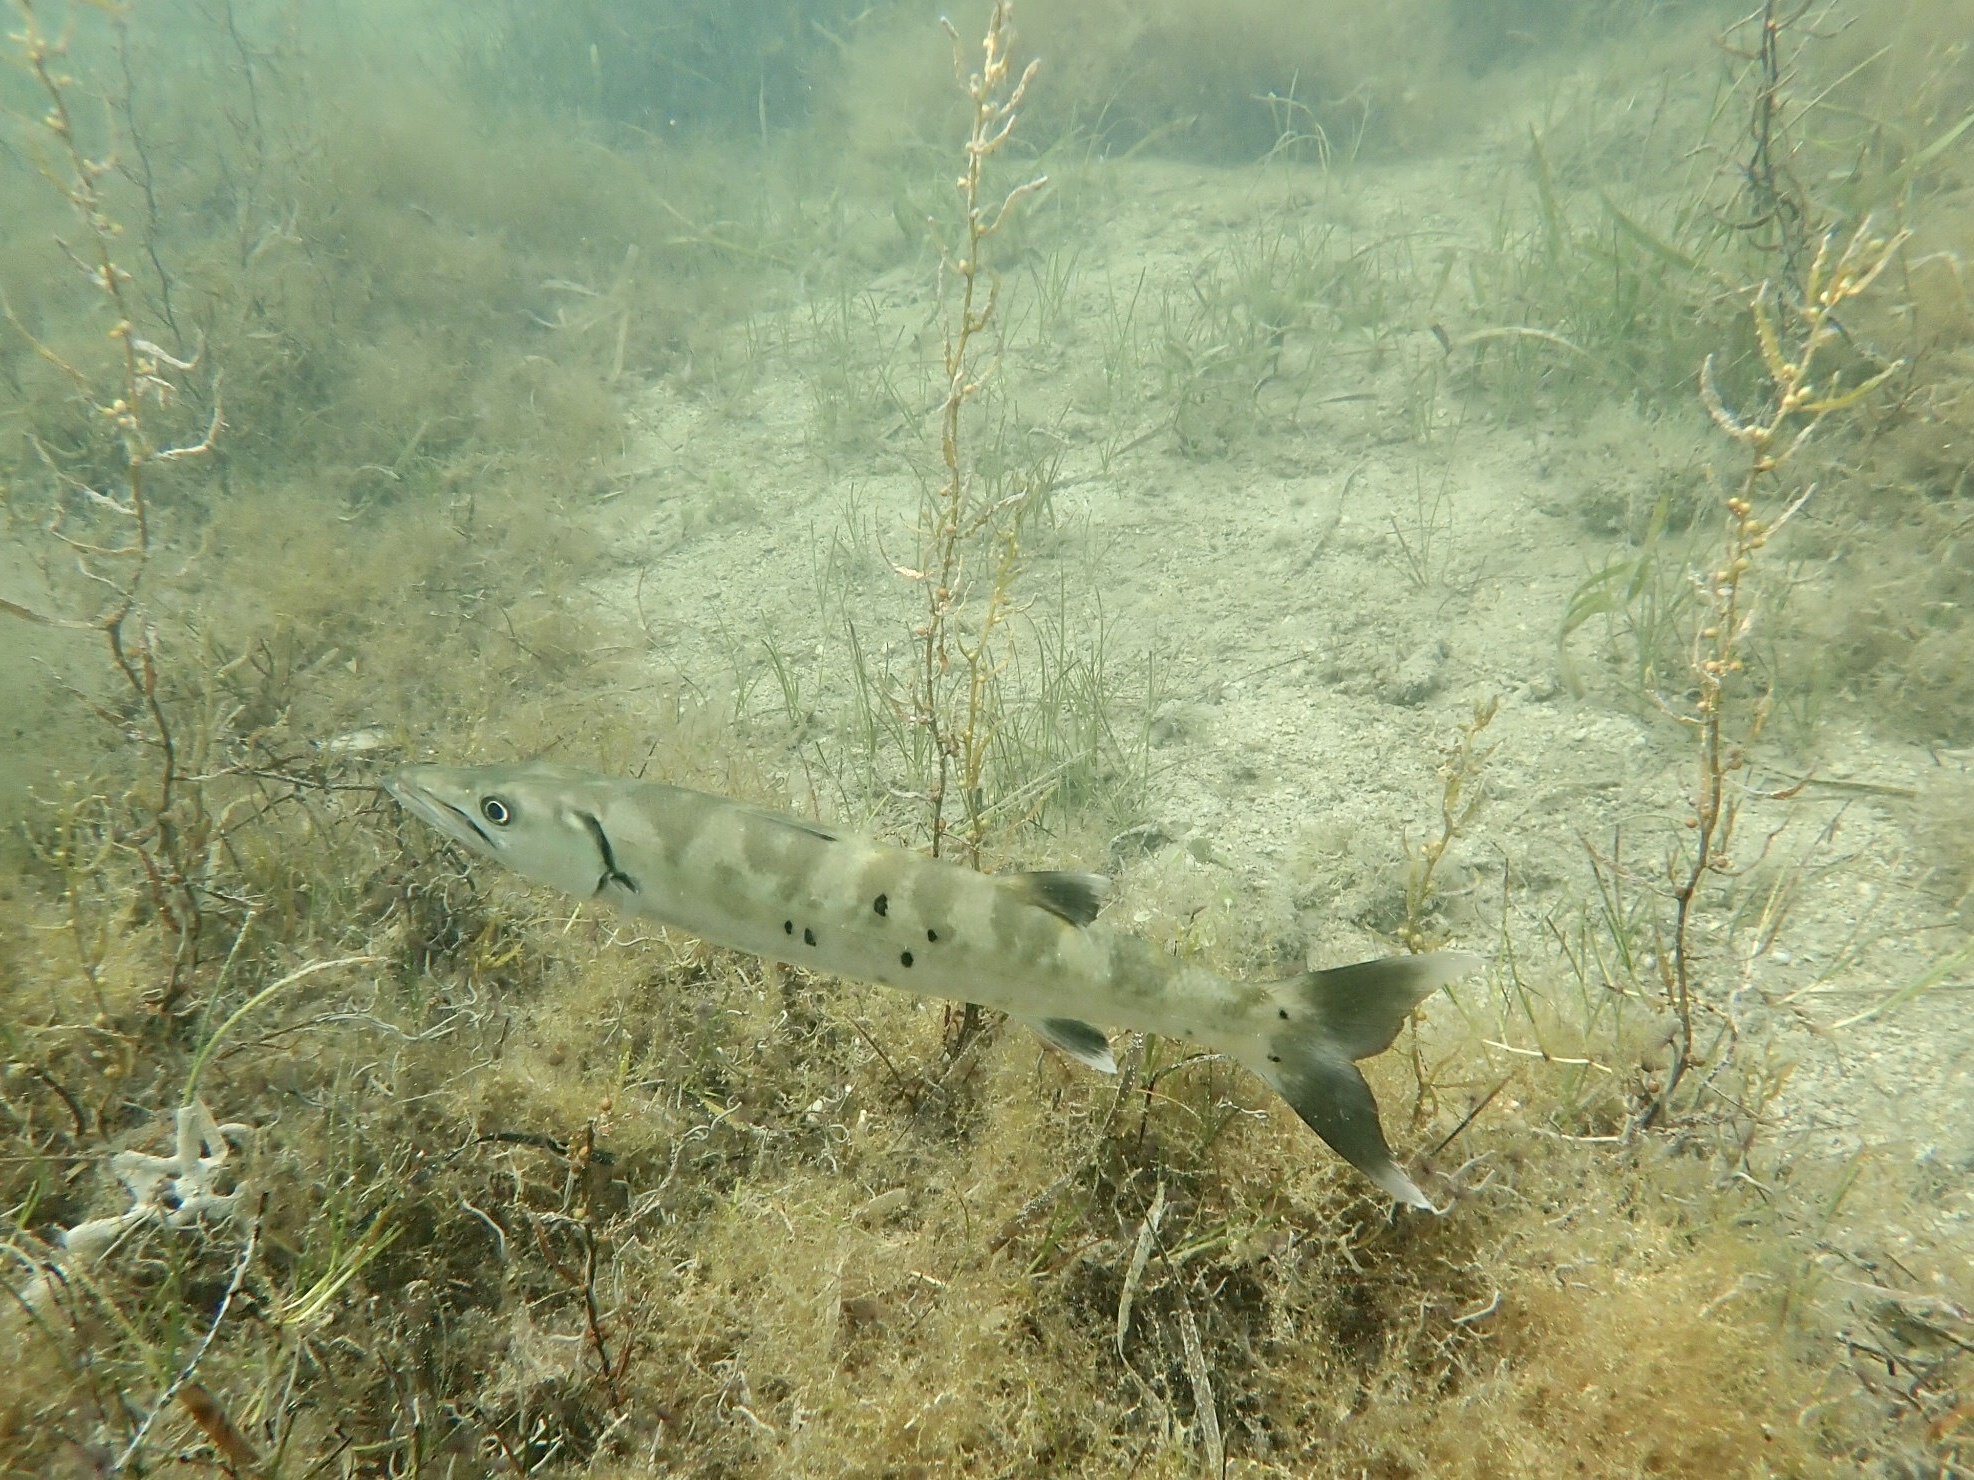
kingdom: Animalia
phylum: Chordata
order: Perciformes
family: Sphyraenidae
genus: Sphyraena
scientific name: Sphyraena barracuda
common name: Great barracuda
